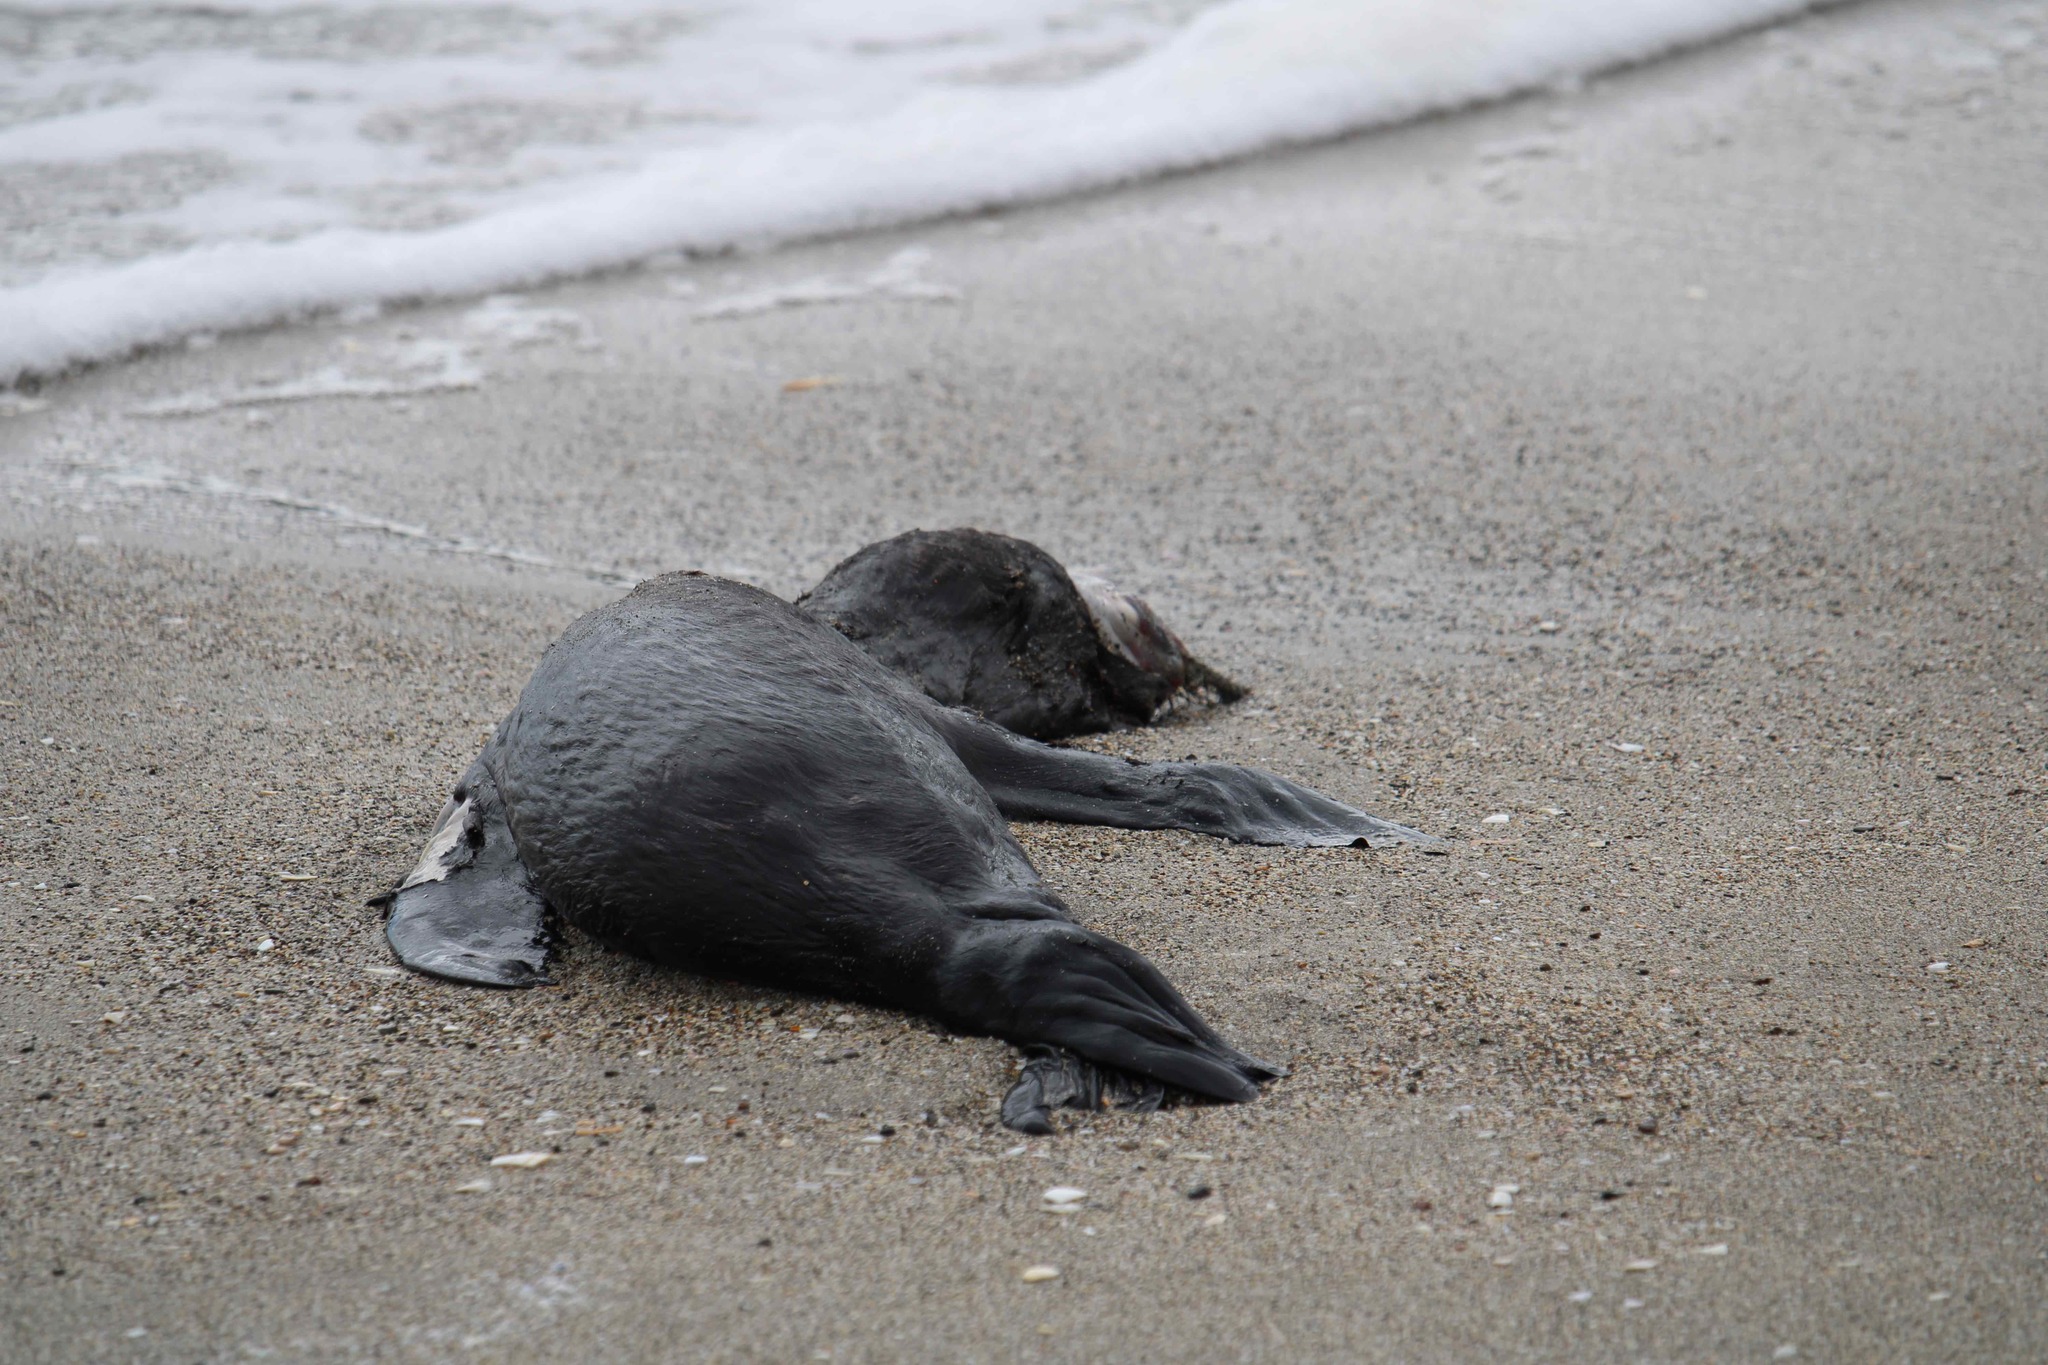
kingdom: Animalia
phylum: Chordata
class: Mammalia
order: Carnivora
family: Otariidae
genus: Arctocephalus
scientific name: Arctocephalus forsteri
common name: New zealand fur seal
